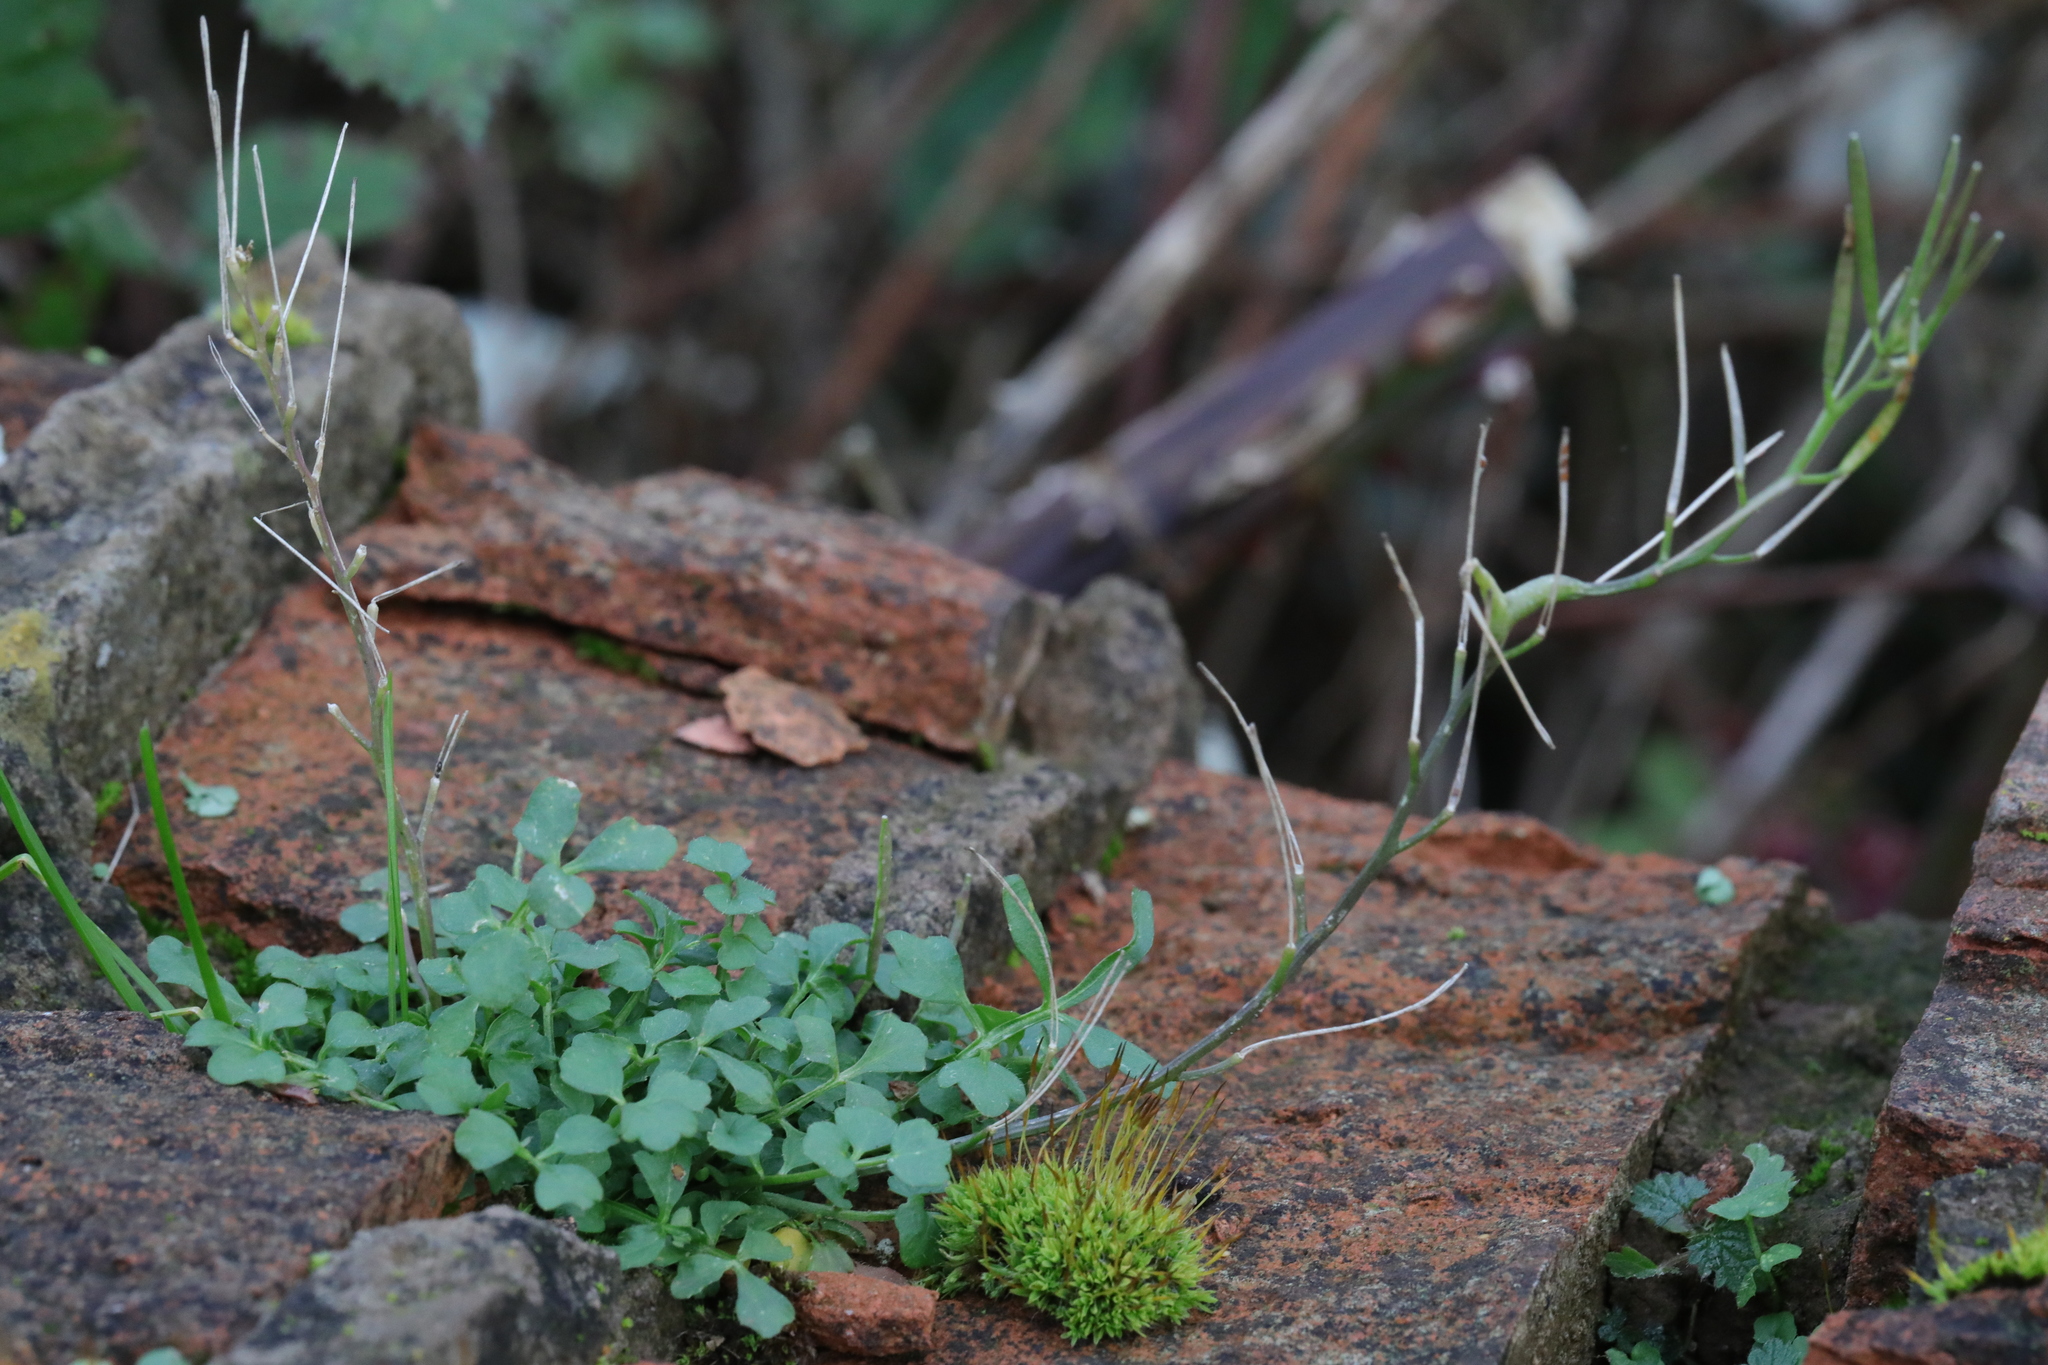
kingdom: Plantae
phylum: Tracheophyta
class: Magnoliopsida
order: Brassicales
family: Brassicaceae
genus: Cardamine
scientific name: Cardamine hirsuta
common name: Hairy bittercress
